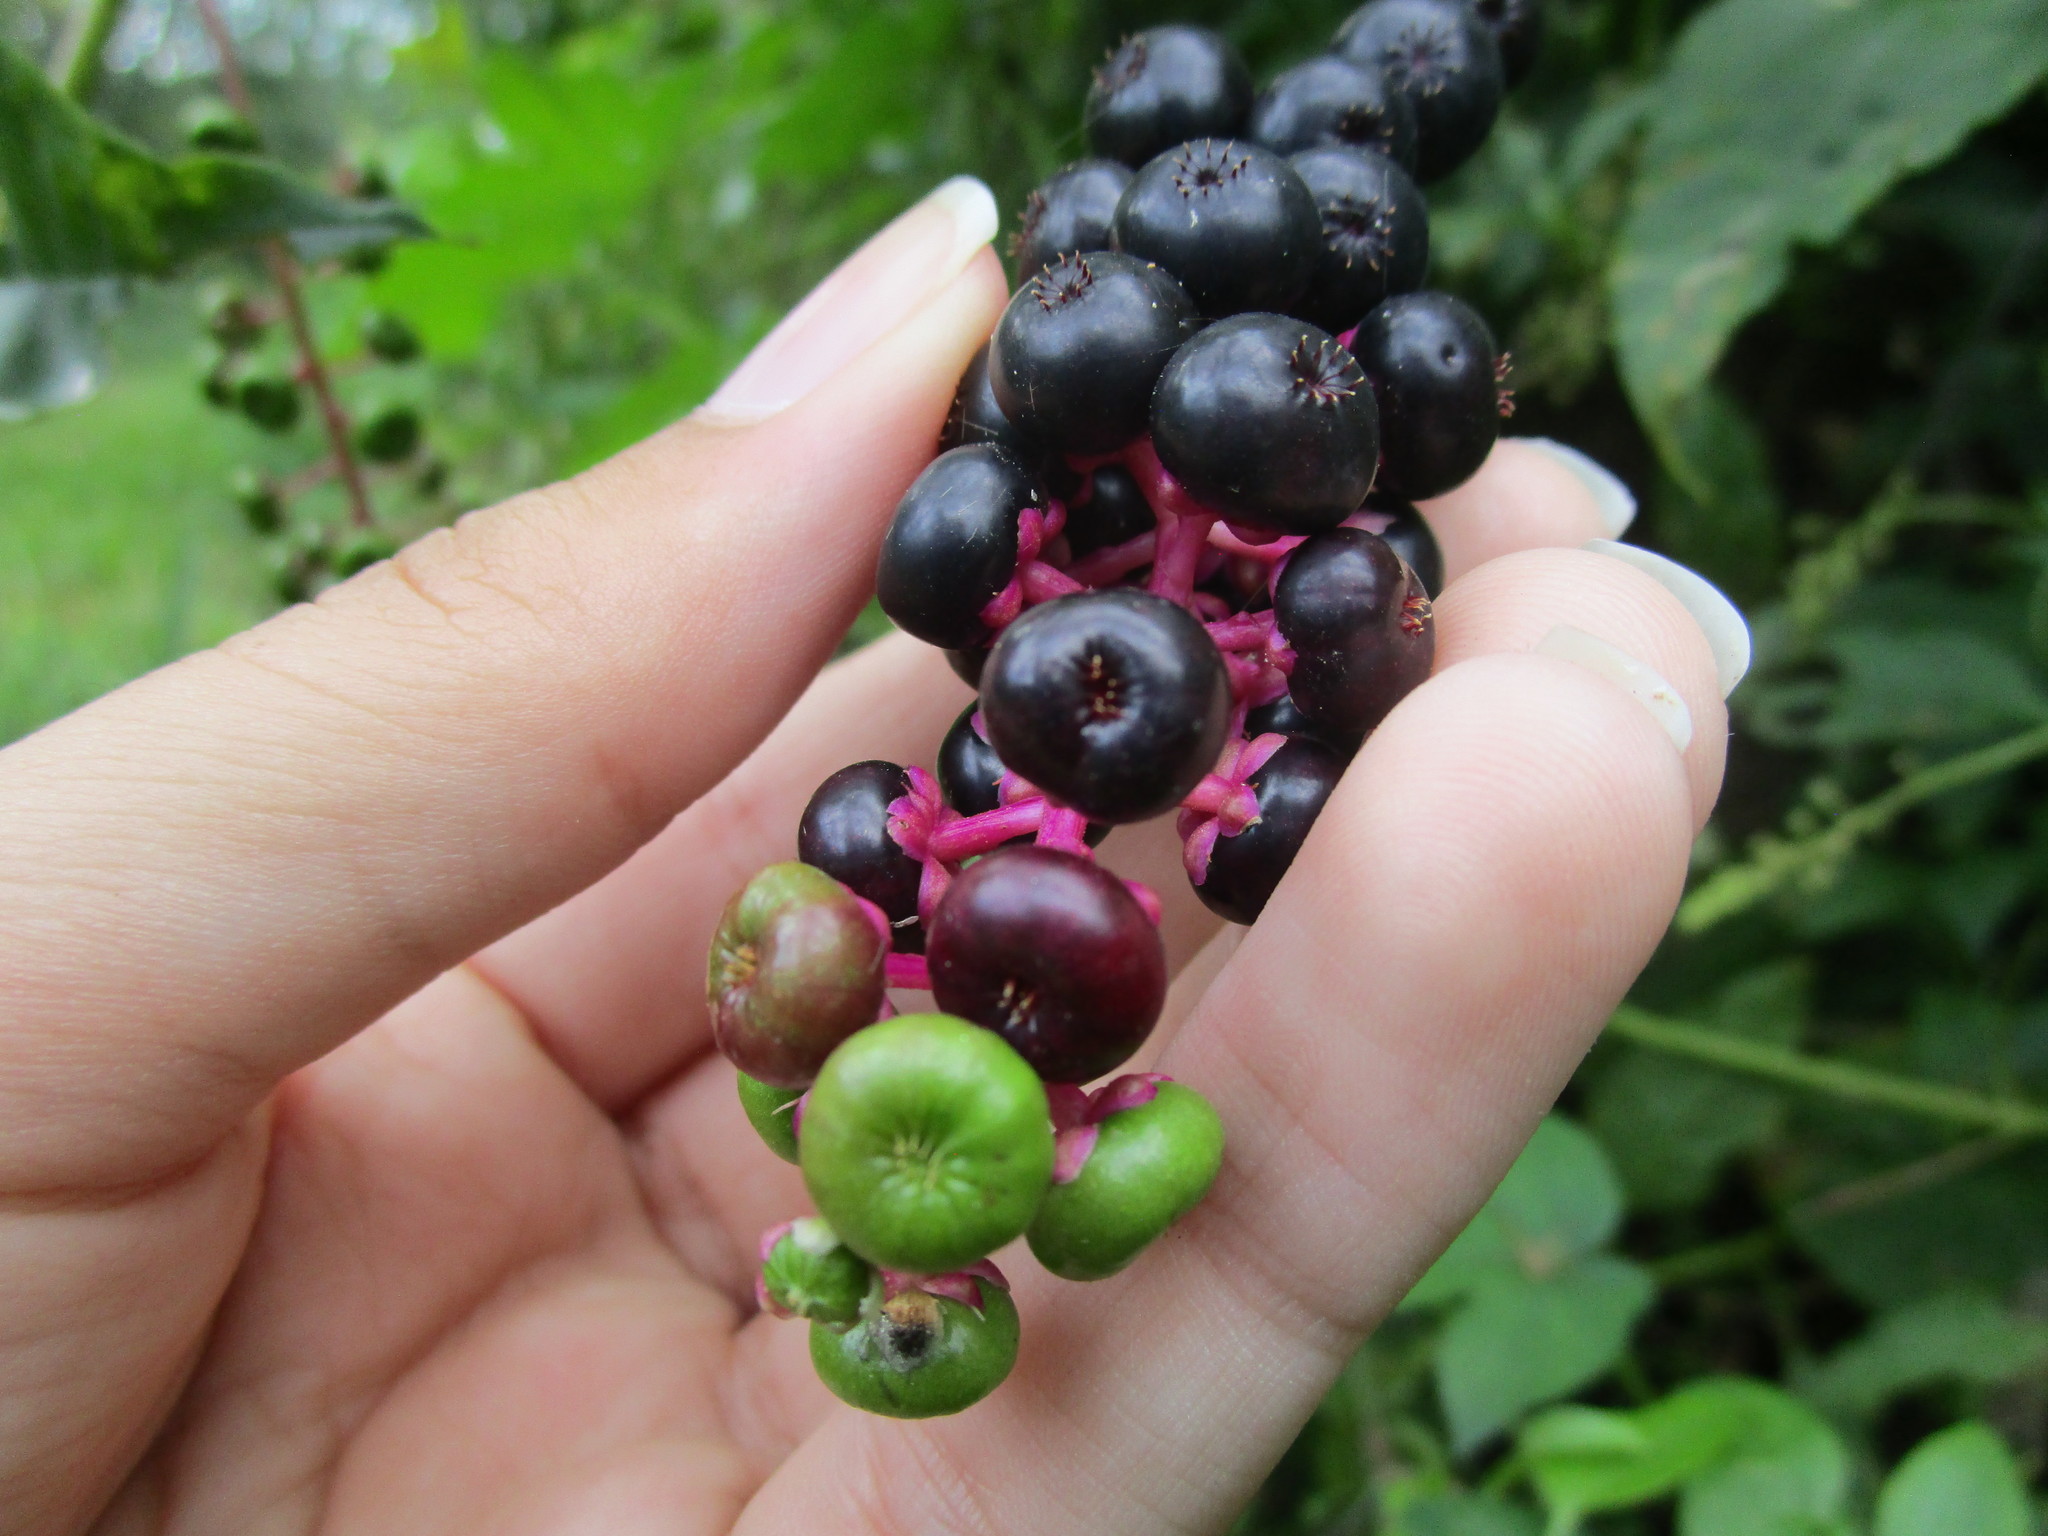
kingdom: Plantae
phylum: Tracheophyta
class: Magnoliopsida
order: Caryophyllales
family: Phytolaccaceae
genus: Phytolacca
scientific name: Phytolacca americana
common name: American pokeweed
